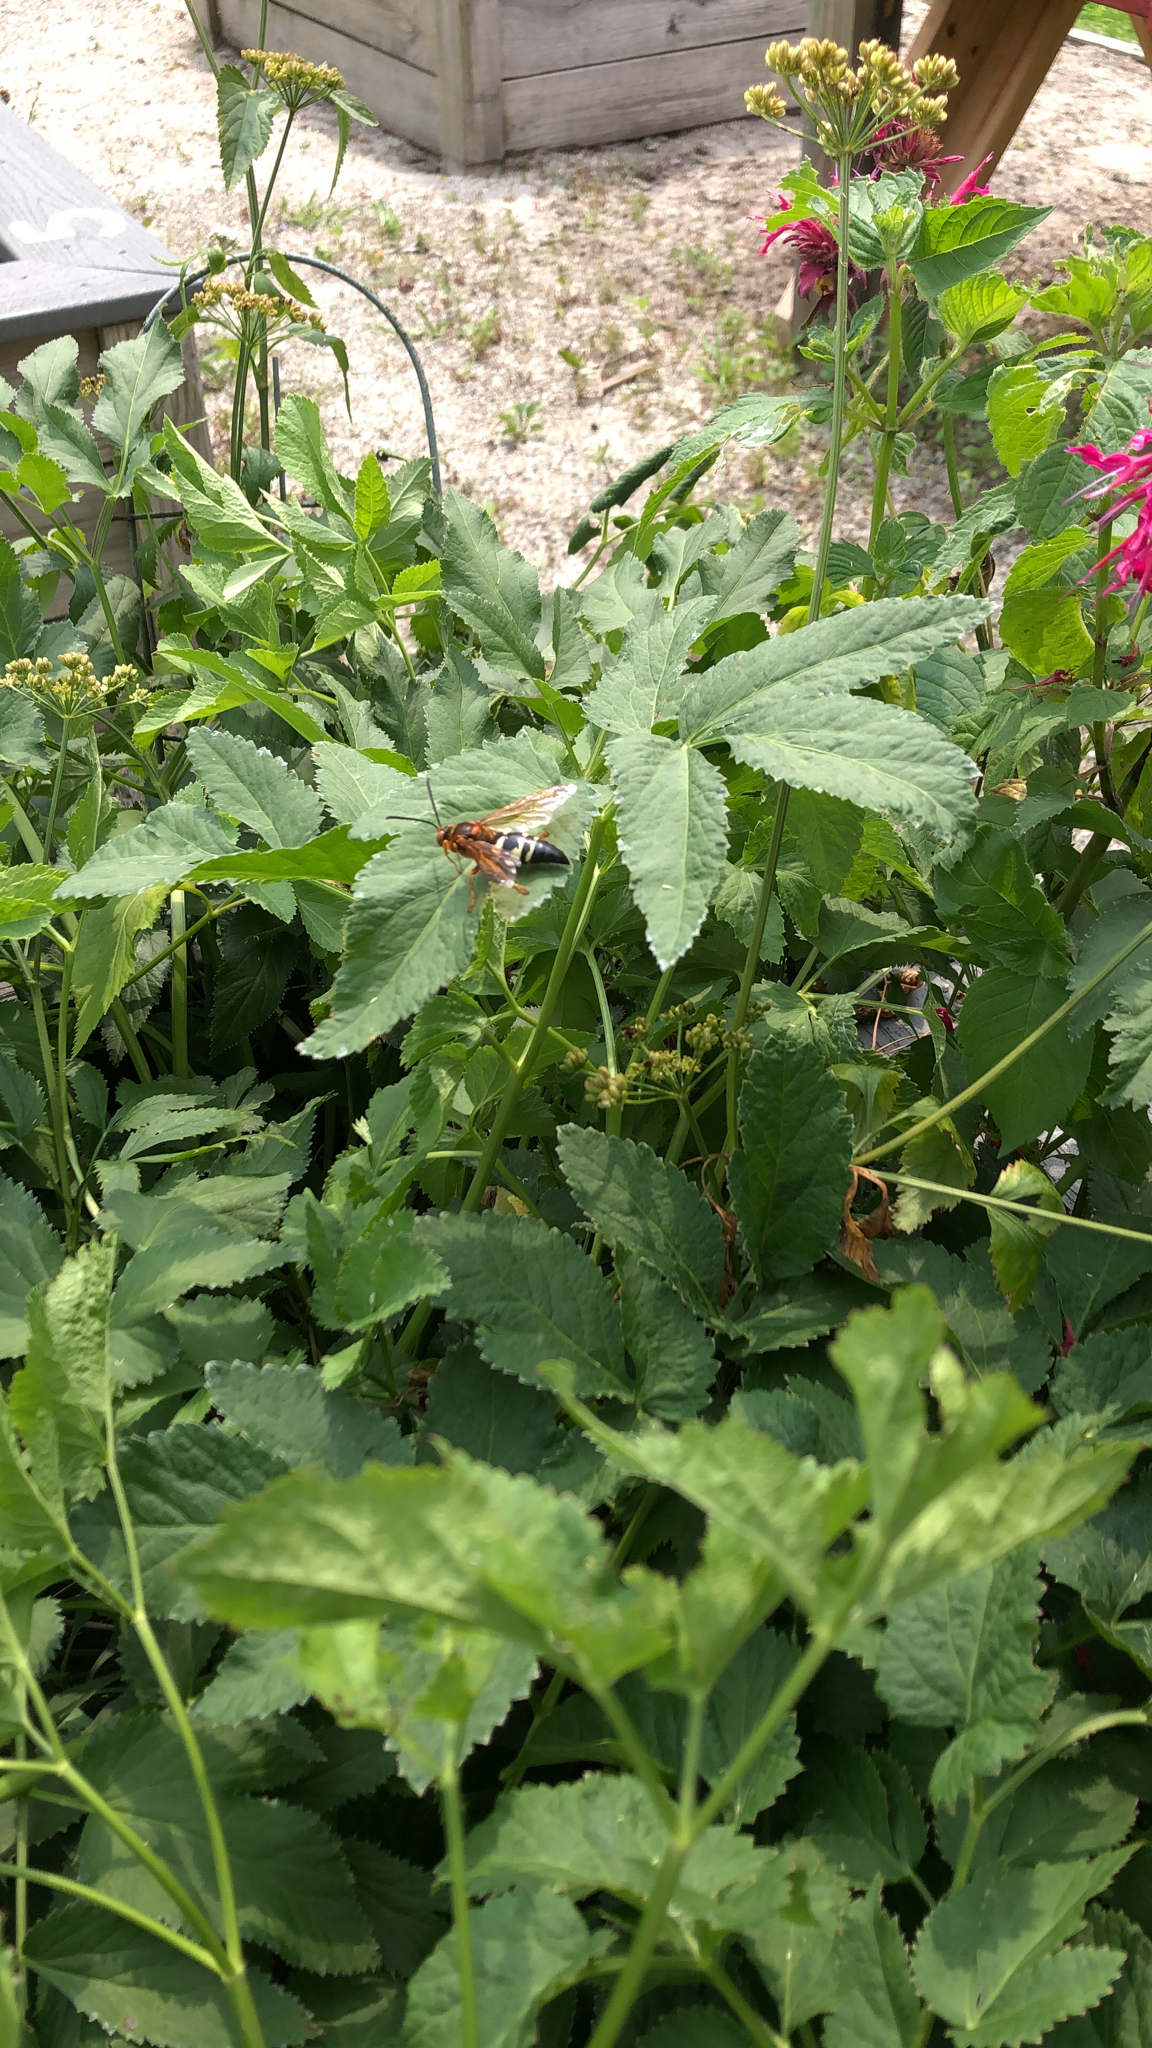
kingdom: Animalia
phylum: Arthropoda
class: Insecta
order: Hymenoptera
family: Crabronidae
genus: Sphecius
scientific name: Sphecius speciosus
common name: Cicada killer
